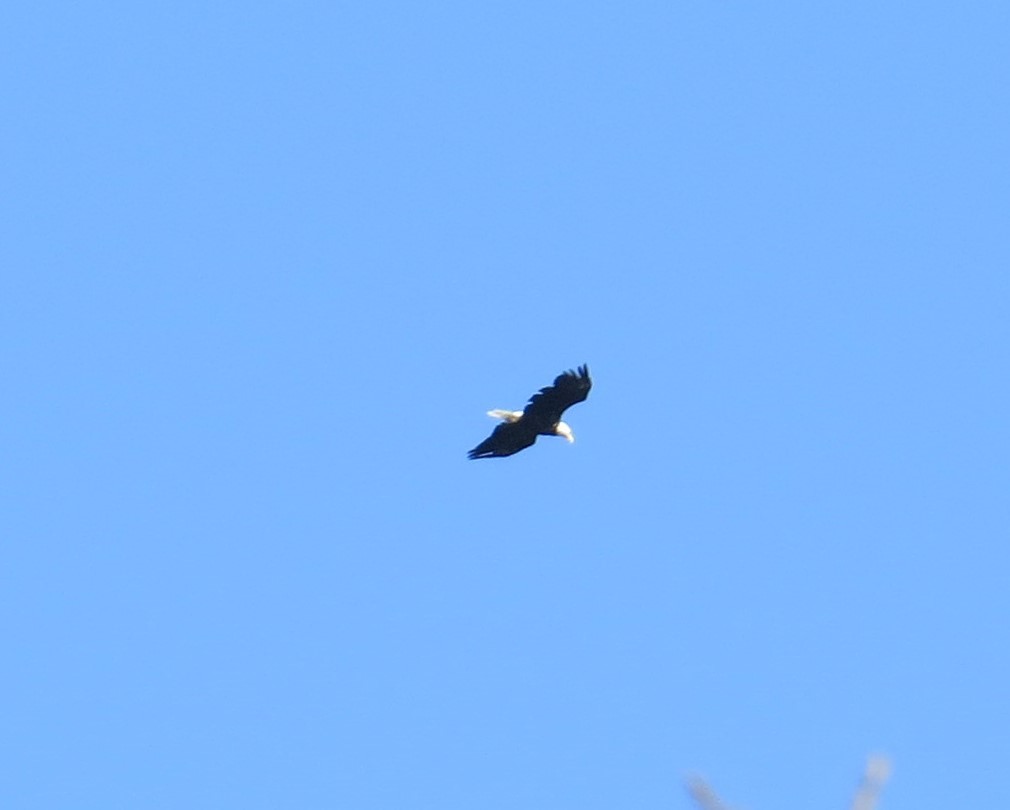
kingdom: Animalia
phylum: Chordata
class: Aves
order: Accipitriformes
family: Accipitridae
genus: Haliaeetus
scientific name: Haliaeetus leucocephalus
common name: Bald eagle
